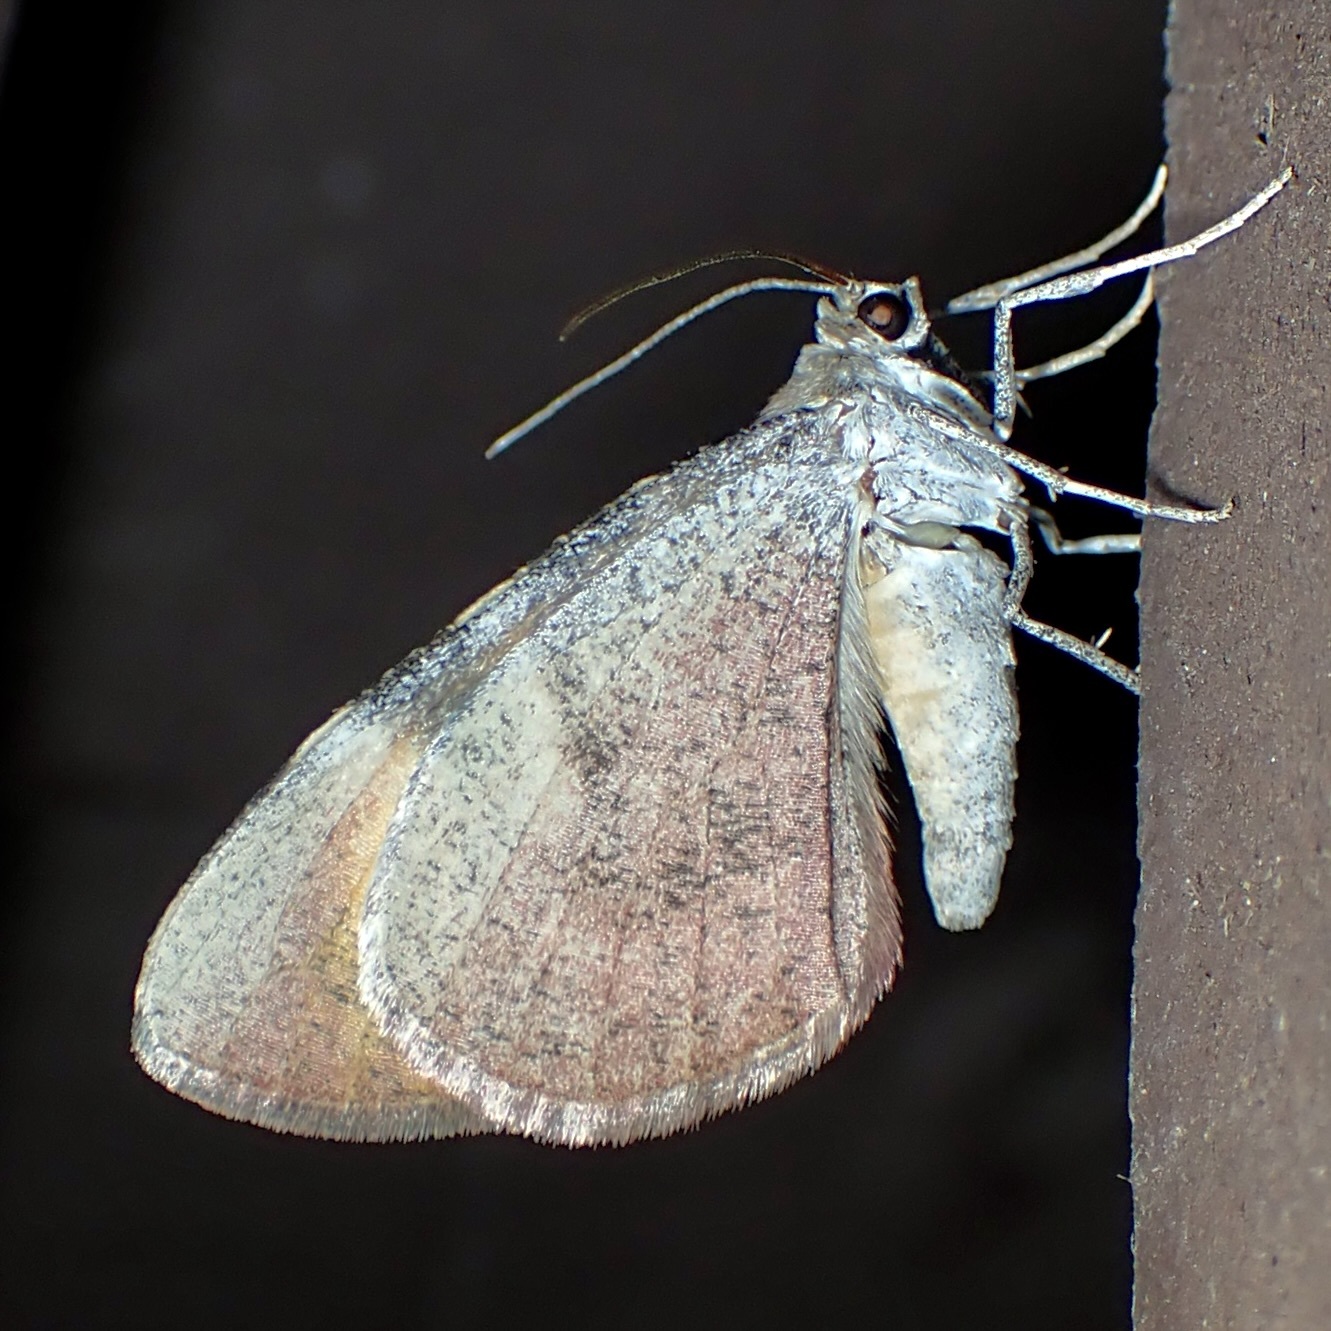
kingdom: Animalia
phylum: Arthropoda
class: Insecta
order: Lepidoptera
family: Geometridae
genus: Stamnodes
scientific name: Stamnodes seiferti
